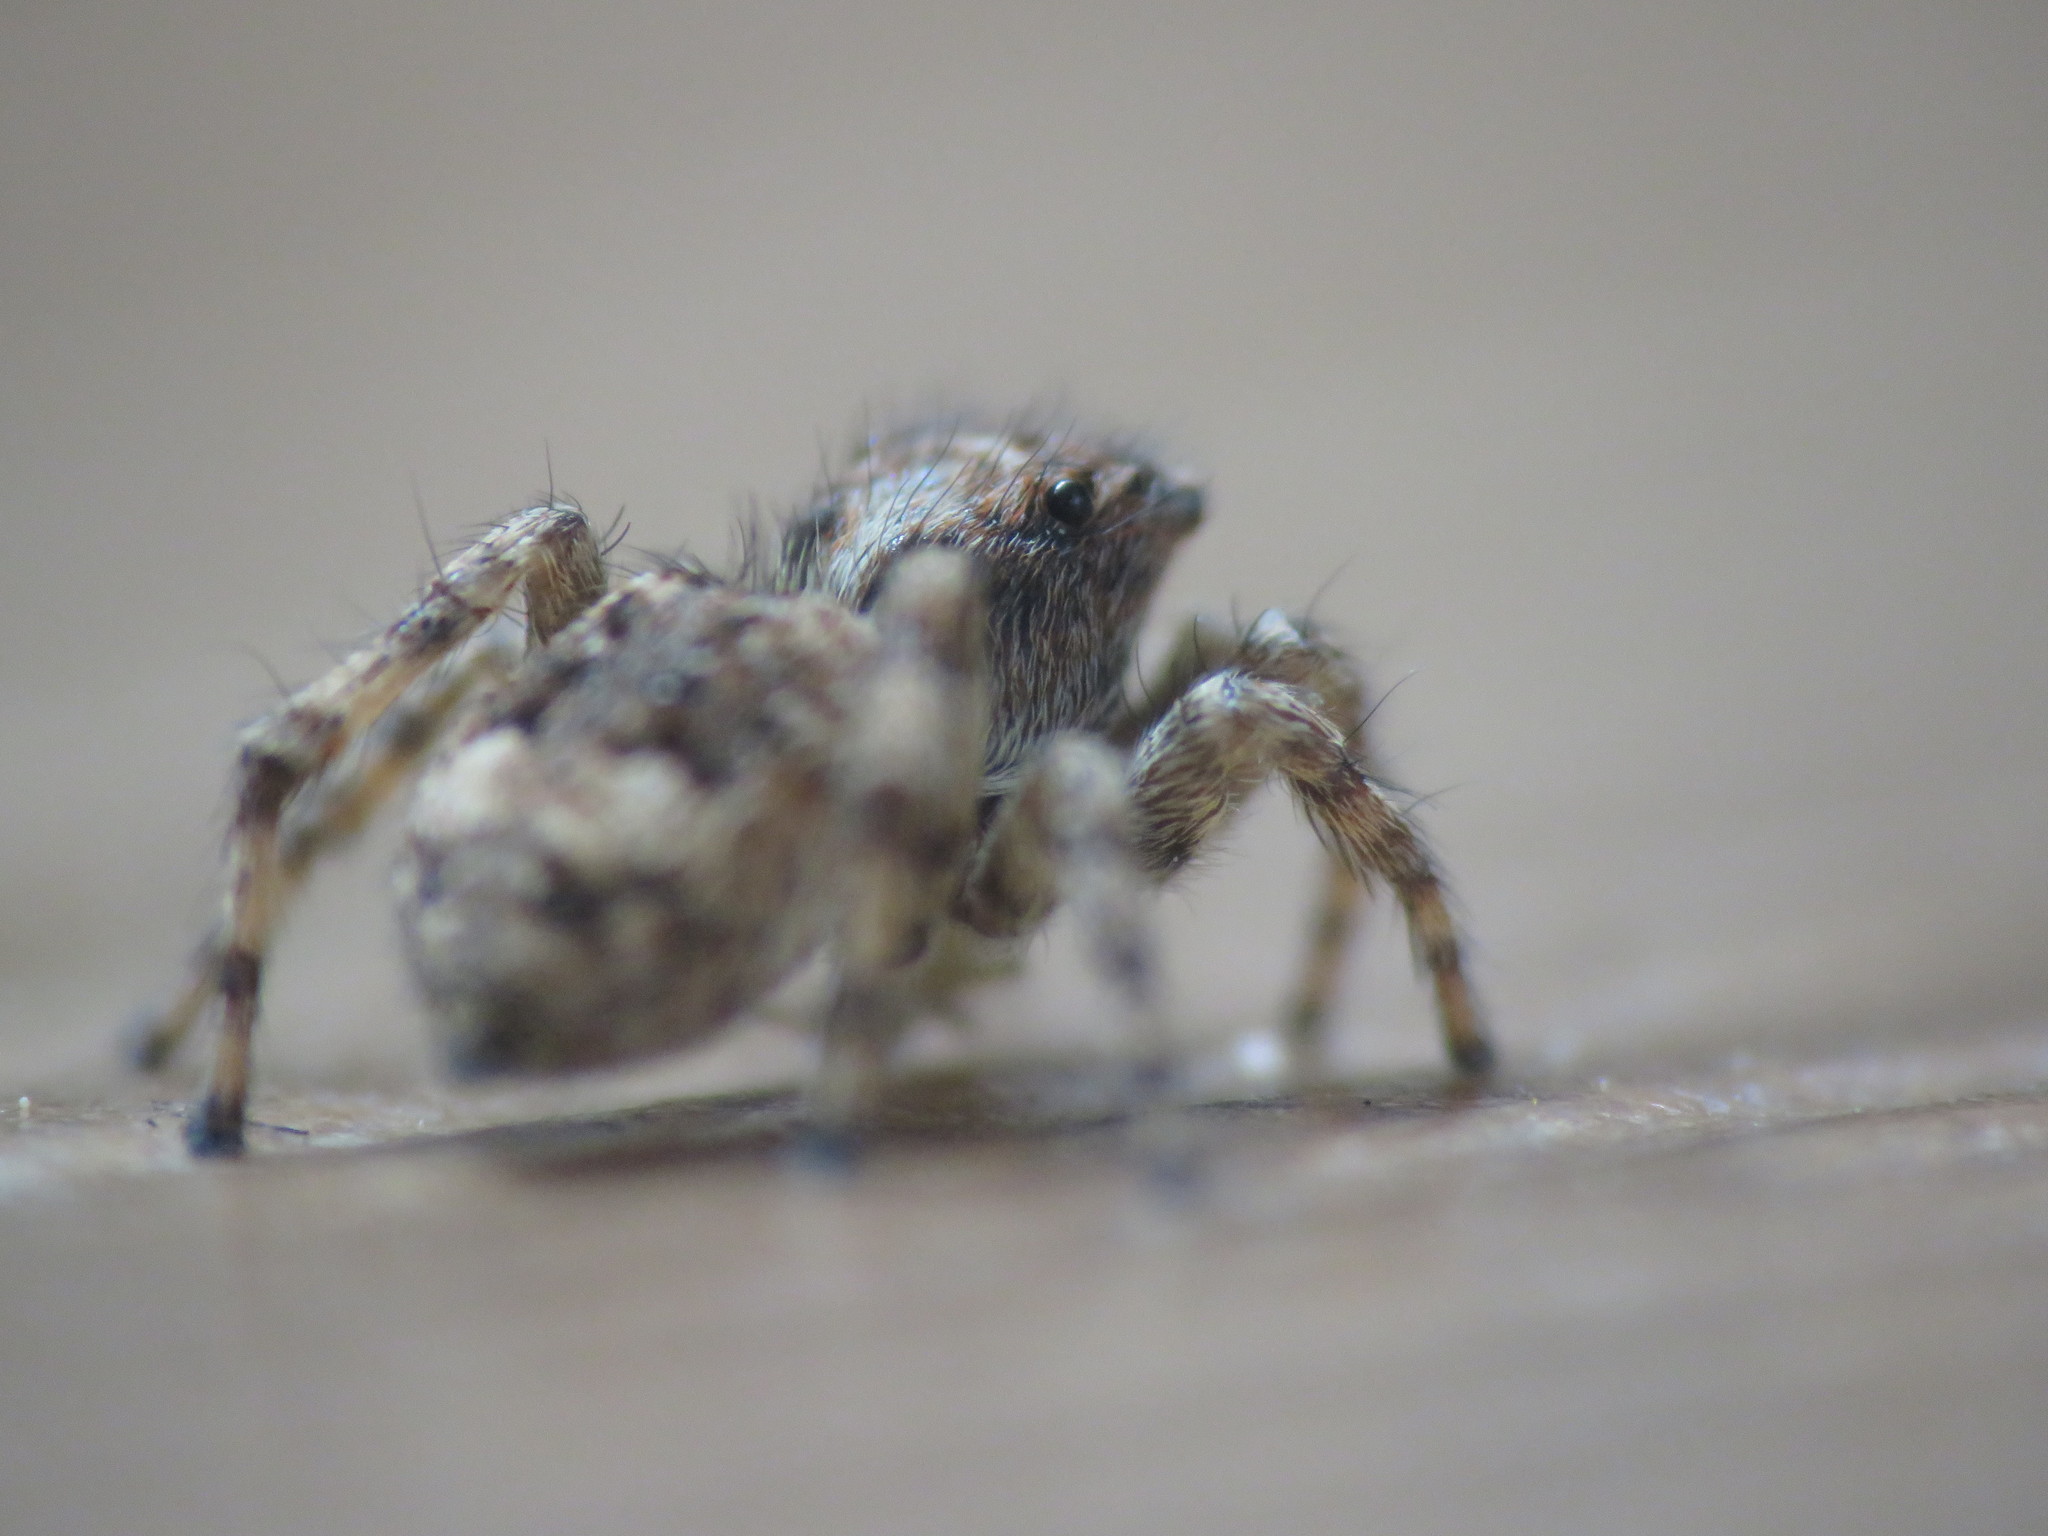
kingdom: Animalia
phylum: Arthropoda
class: Arachnida
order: Araneae
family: Salticidae
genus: Attulus
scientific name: Attulus fasciger
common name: Asiatic wall jumping spider
